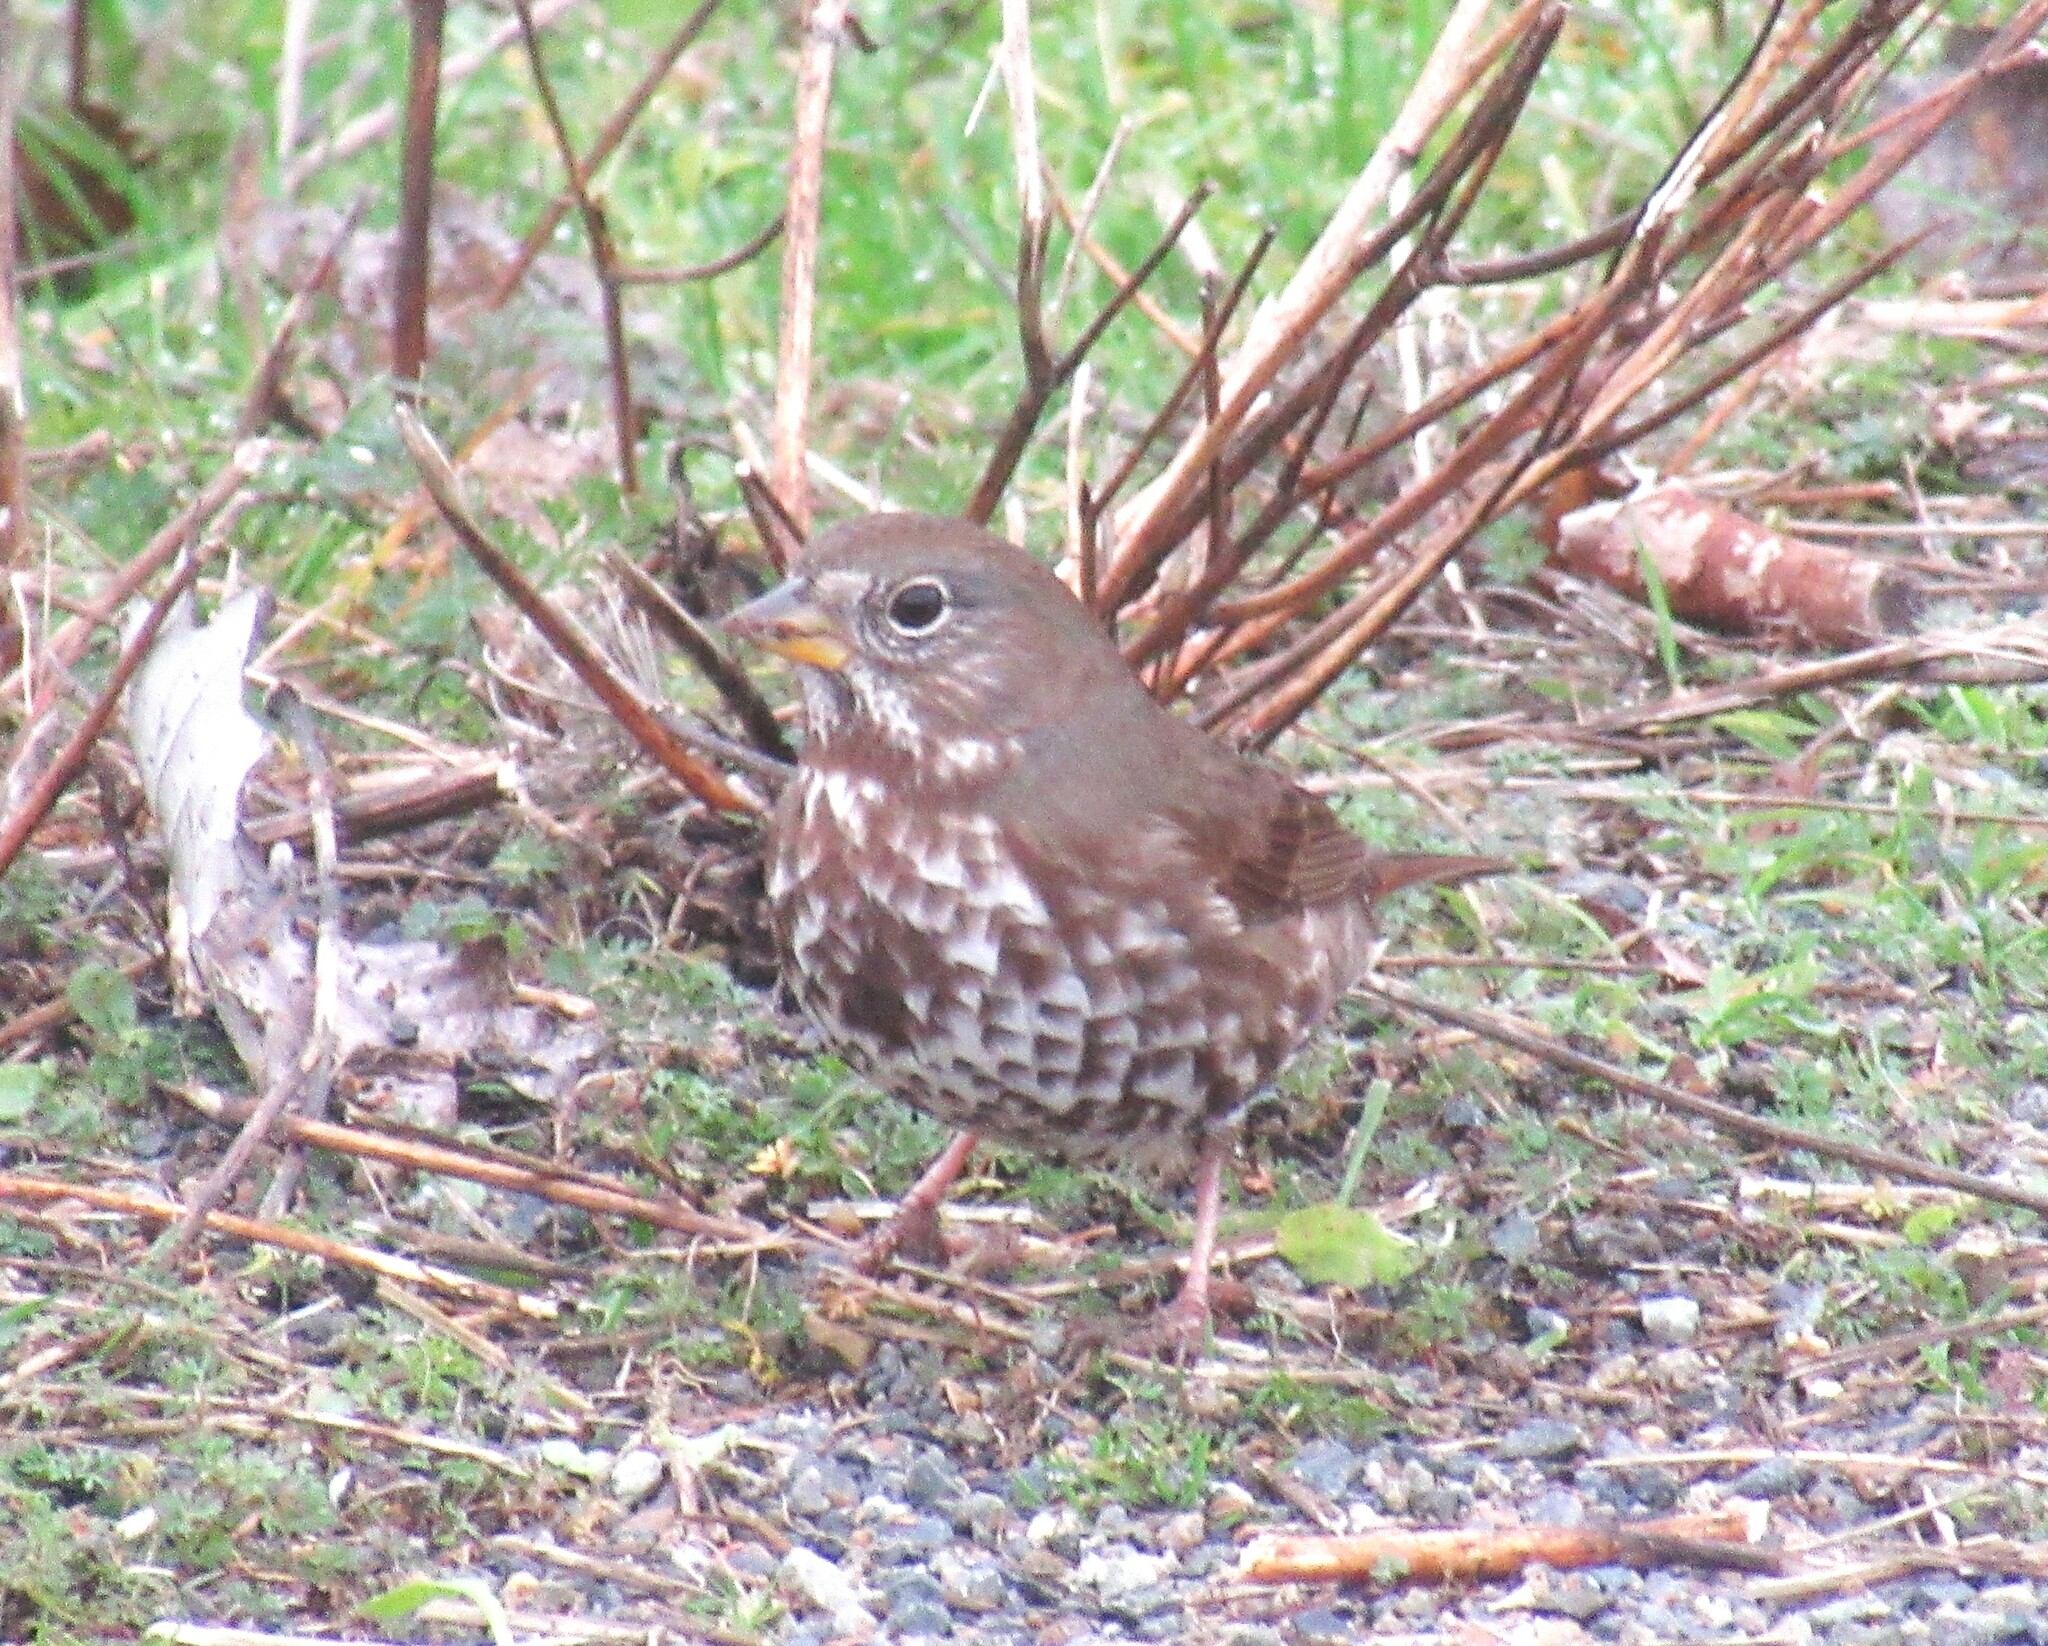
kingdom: Animalia
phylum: Chordata
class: Aves
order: Passeriformes
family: Passerellidae
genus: Passerella
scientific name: Passerella iliaca
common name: Fox sparrow
